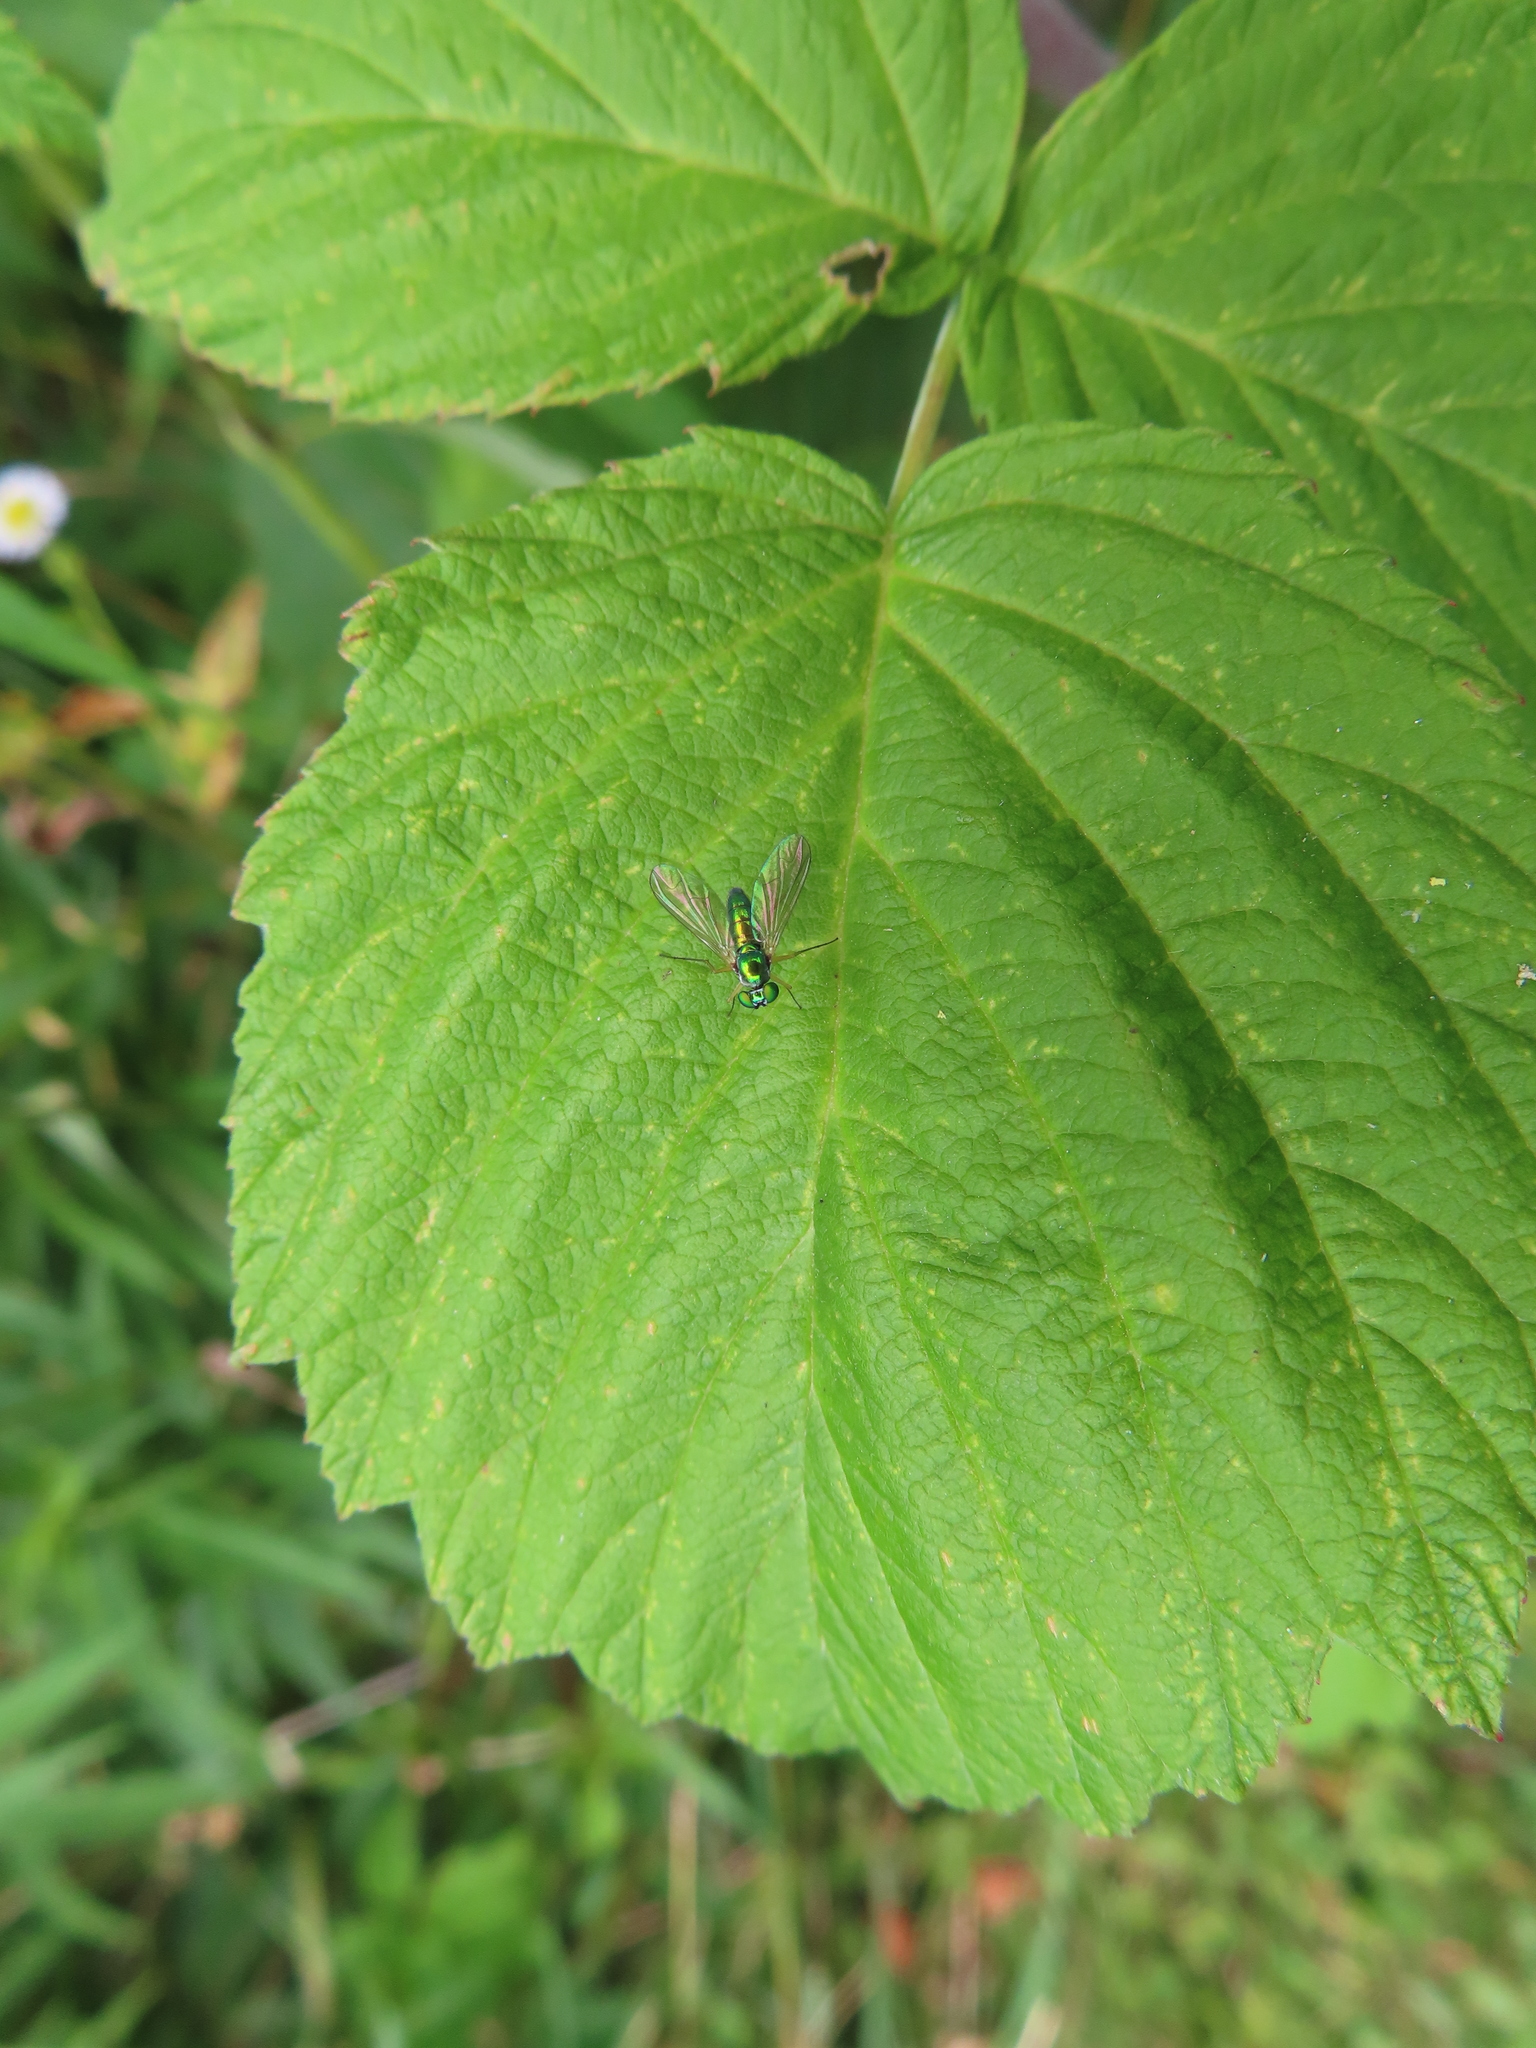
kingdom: Animalia
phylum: Arthropoda
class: Insecta
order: Diptera
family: Dolichopodidae
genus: Amblypsilopus
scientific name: Amblypsilopus scintillans
